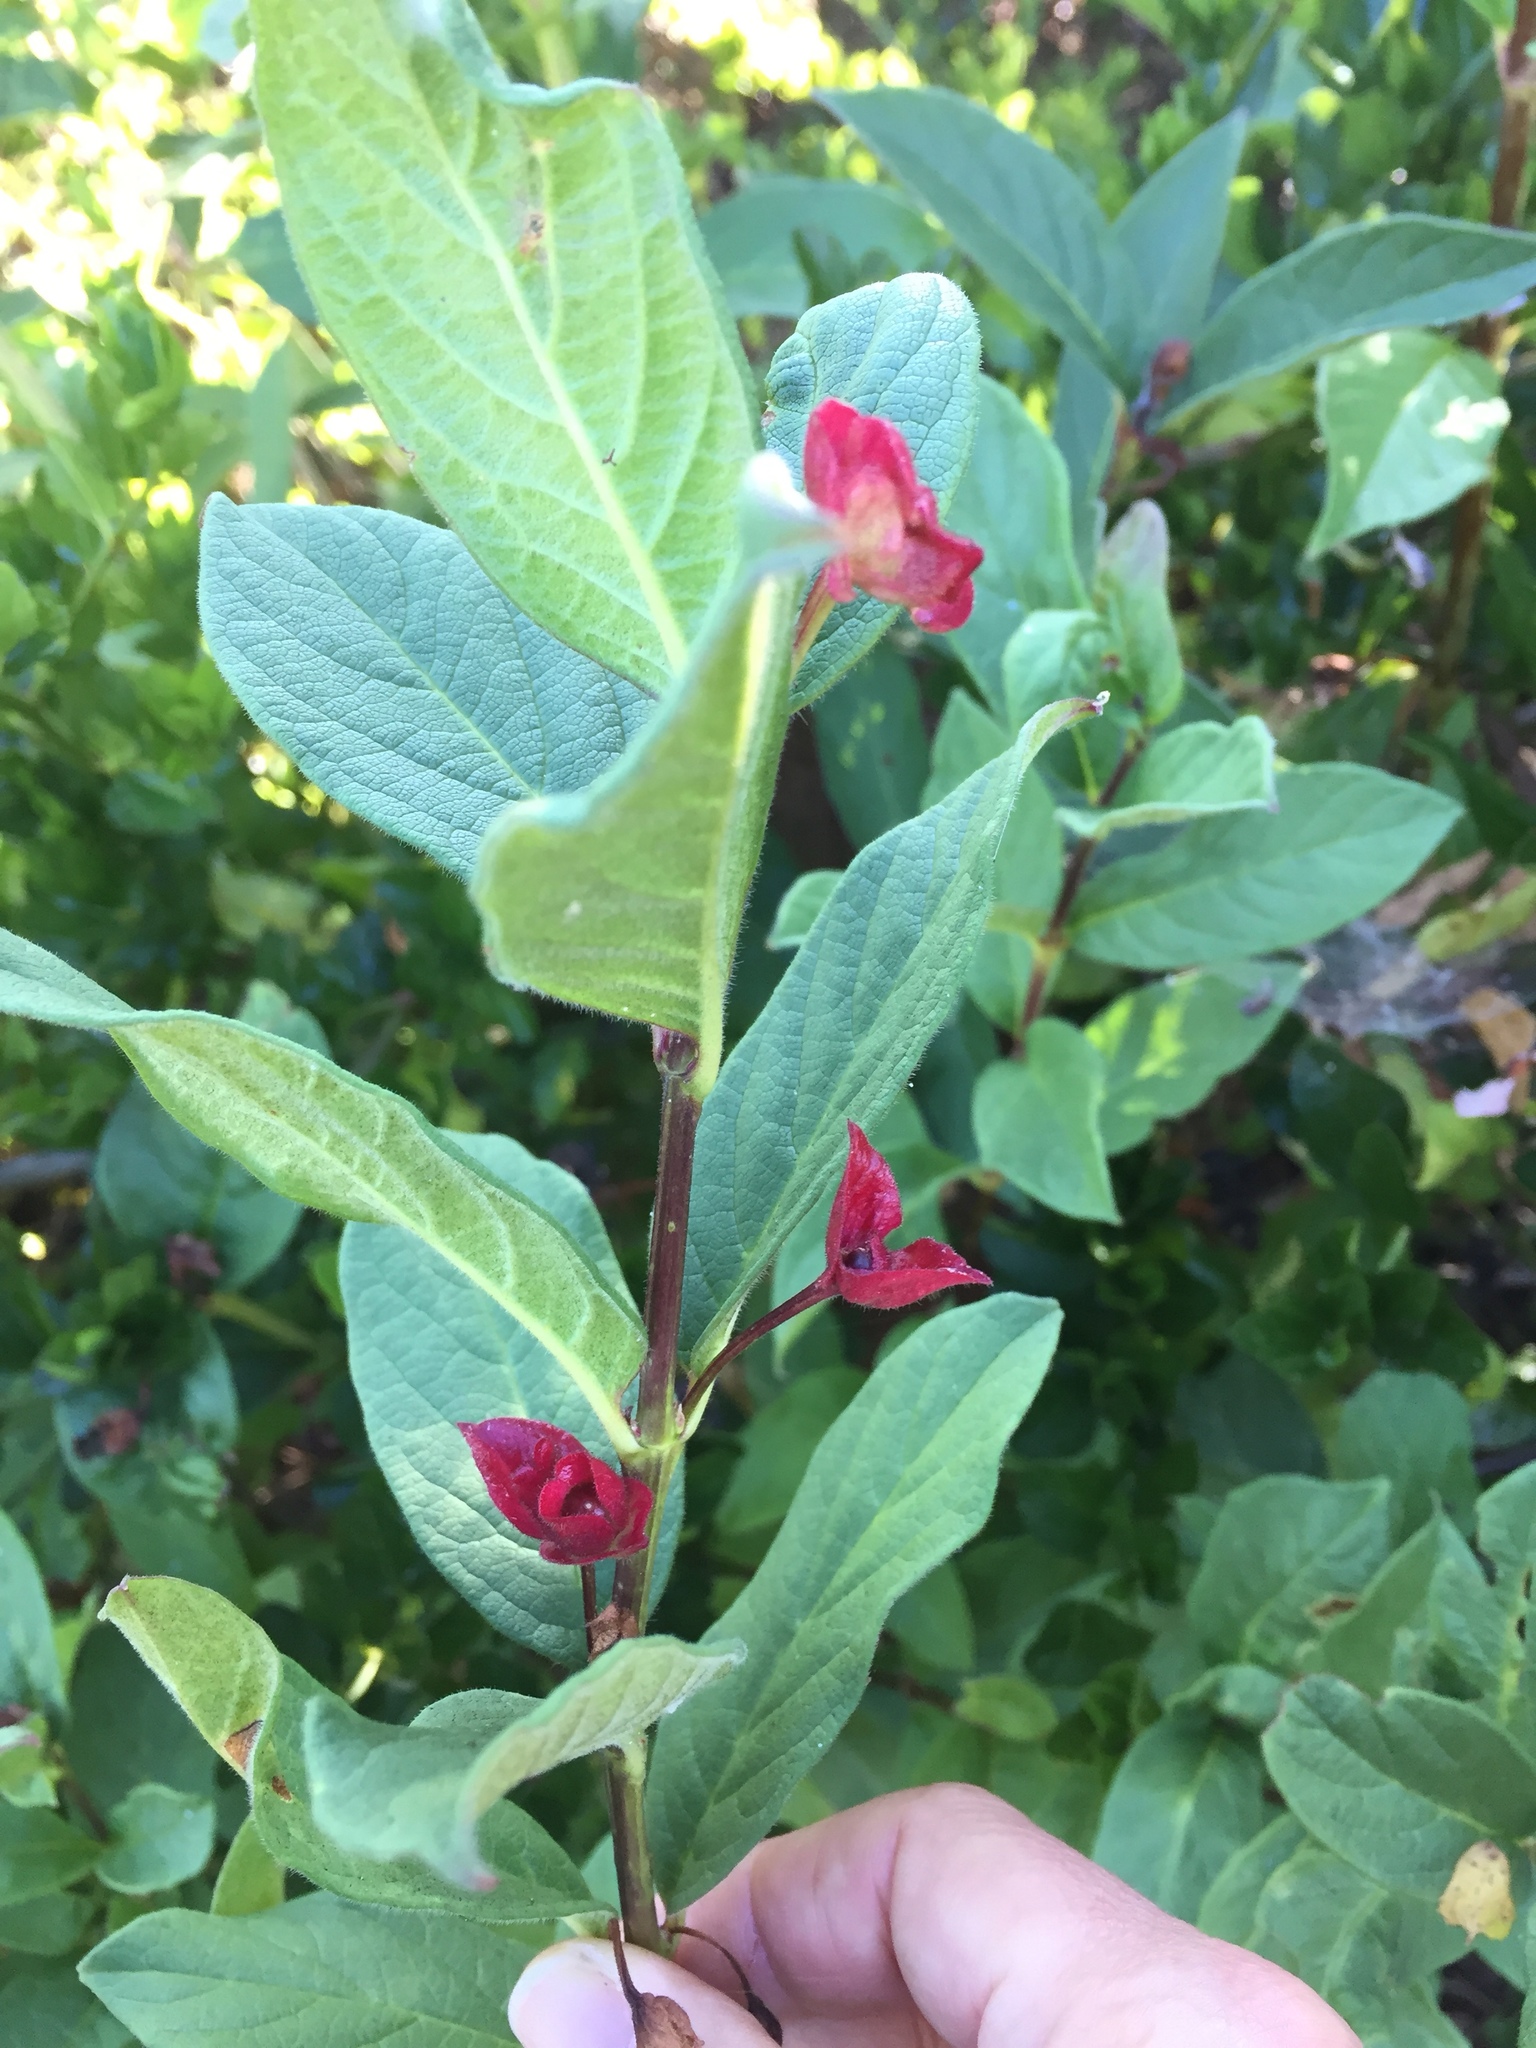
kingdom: Plantae
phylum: Tracheophyta
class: Magnoliopsida
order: Dipsacales
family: Caprifoliaceae
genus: Lonicera
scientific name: Lonicera involucrata
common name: Californian honeysuckle
